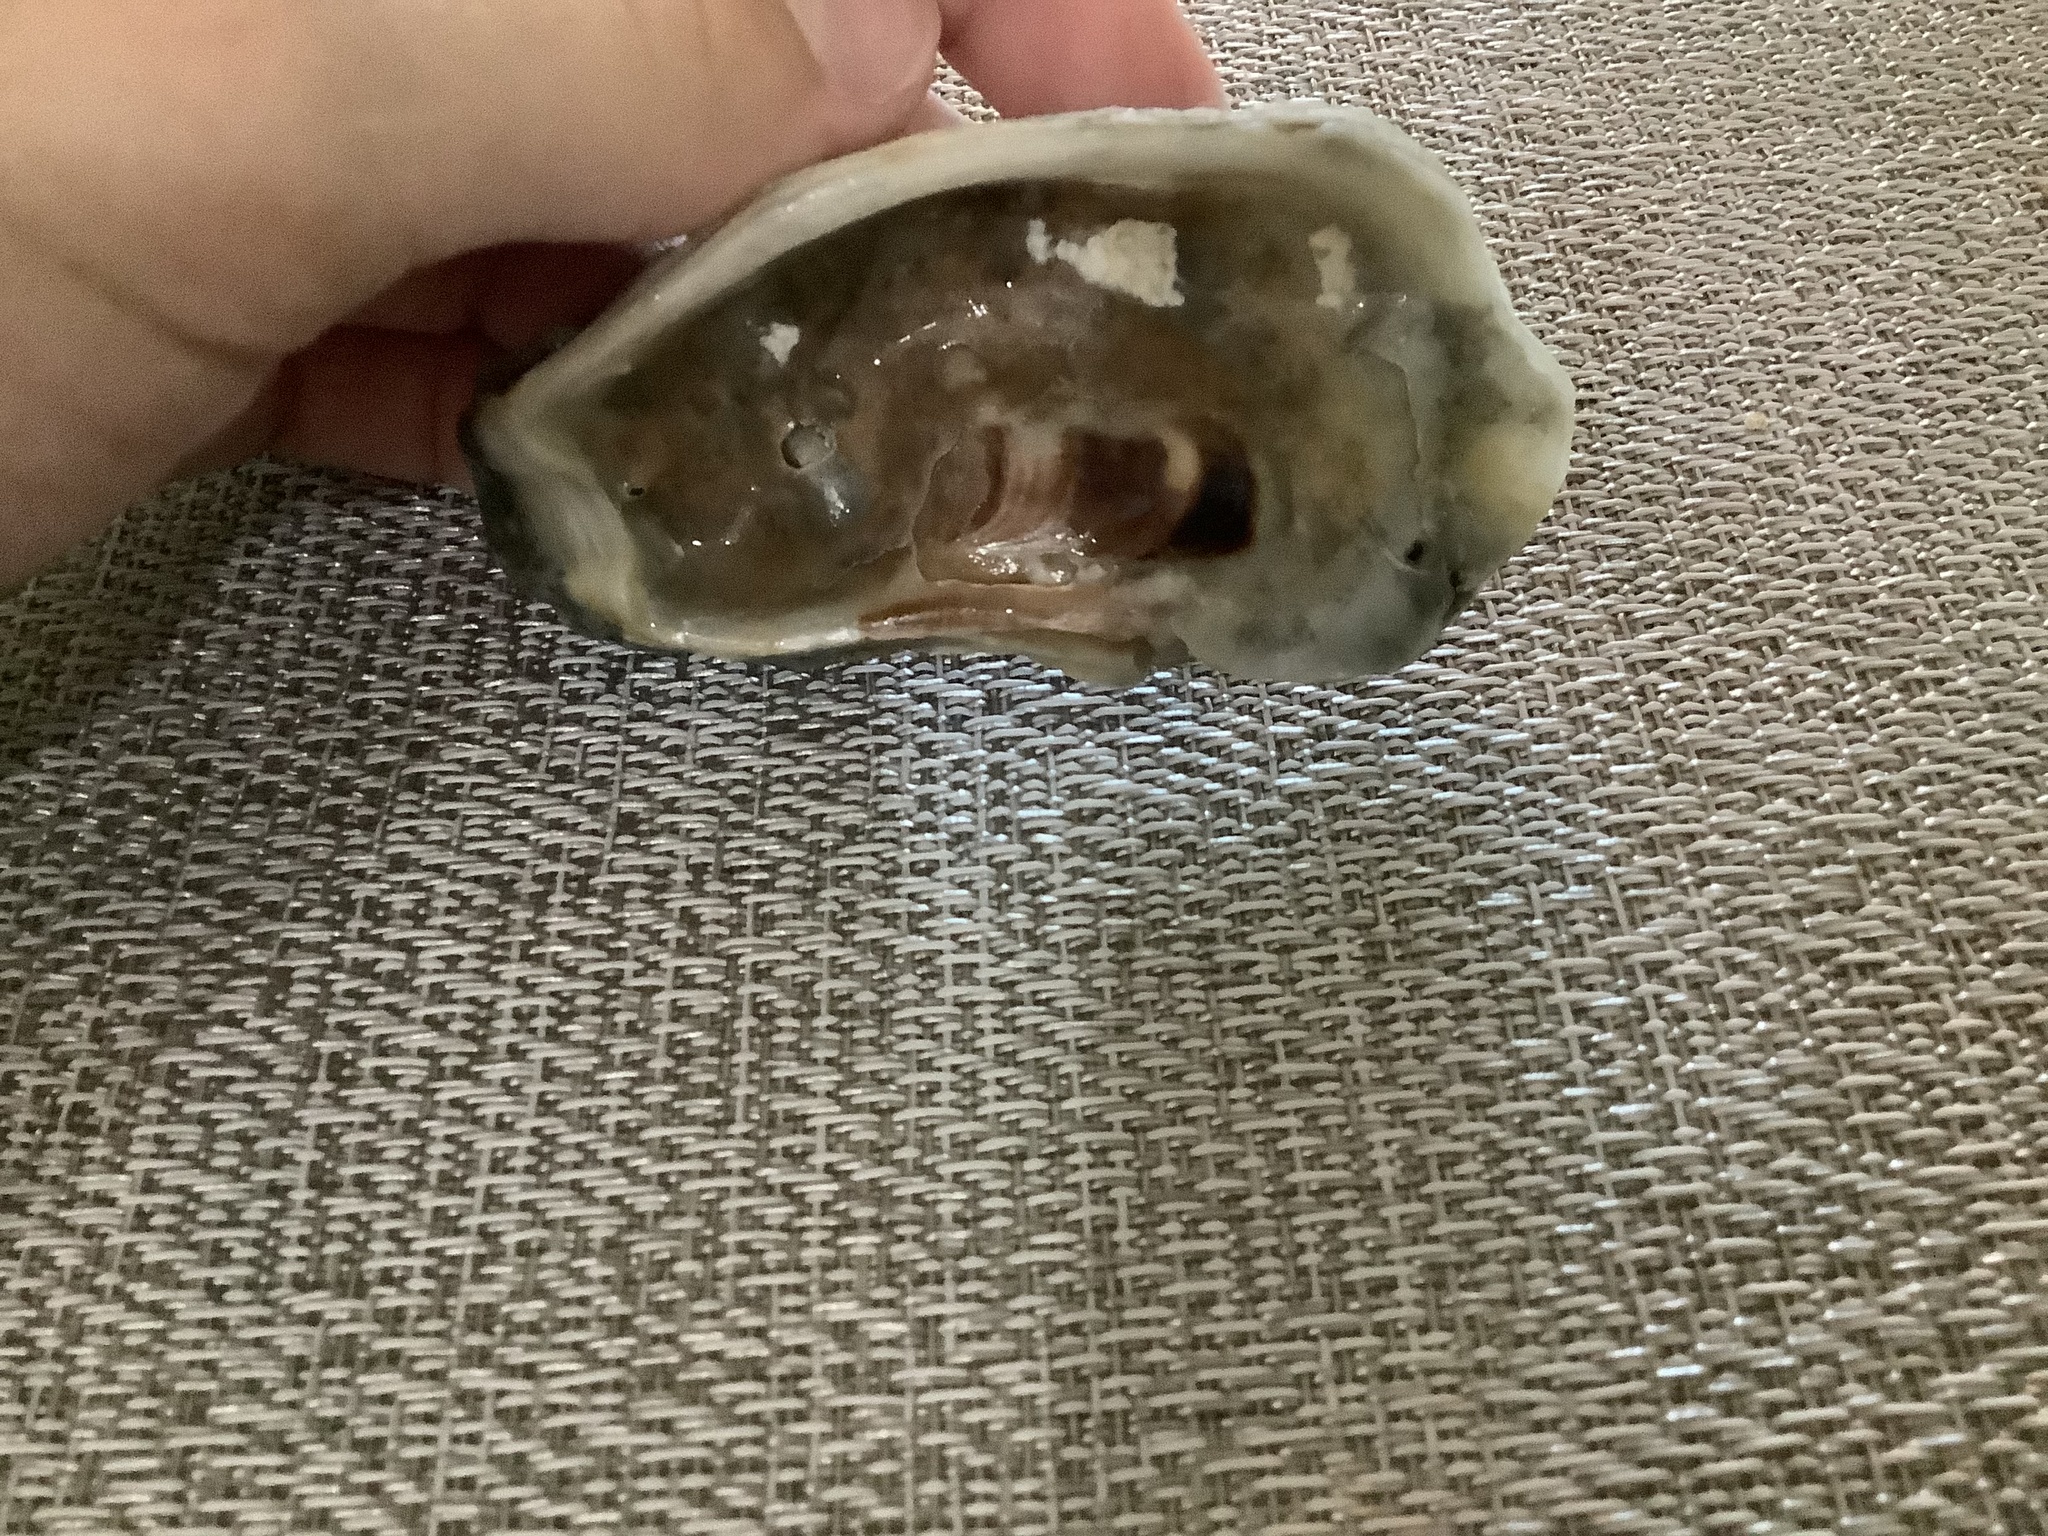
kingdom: Animalia
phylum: Mollusca
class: Bivalvia
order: Ostreida
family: Ostreidae
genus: Crassostrea
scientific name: Crassostrea virginica
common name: American oyster
